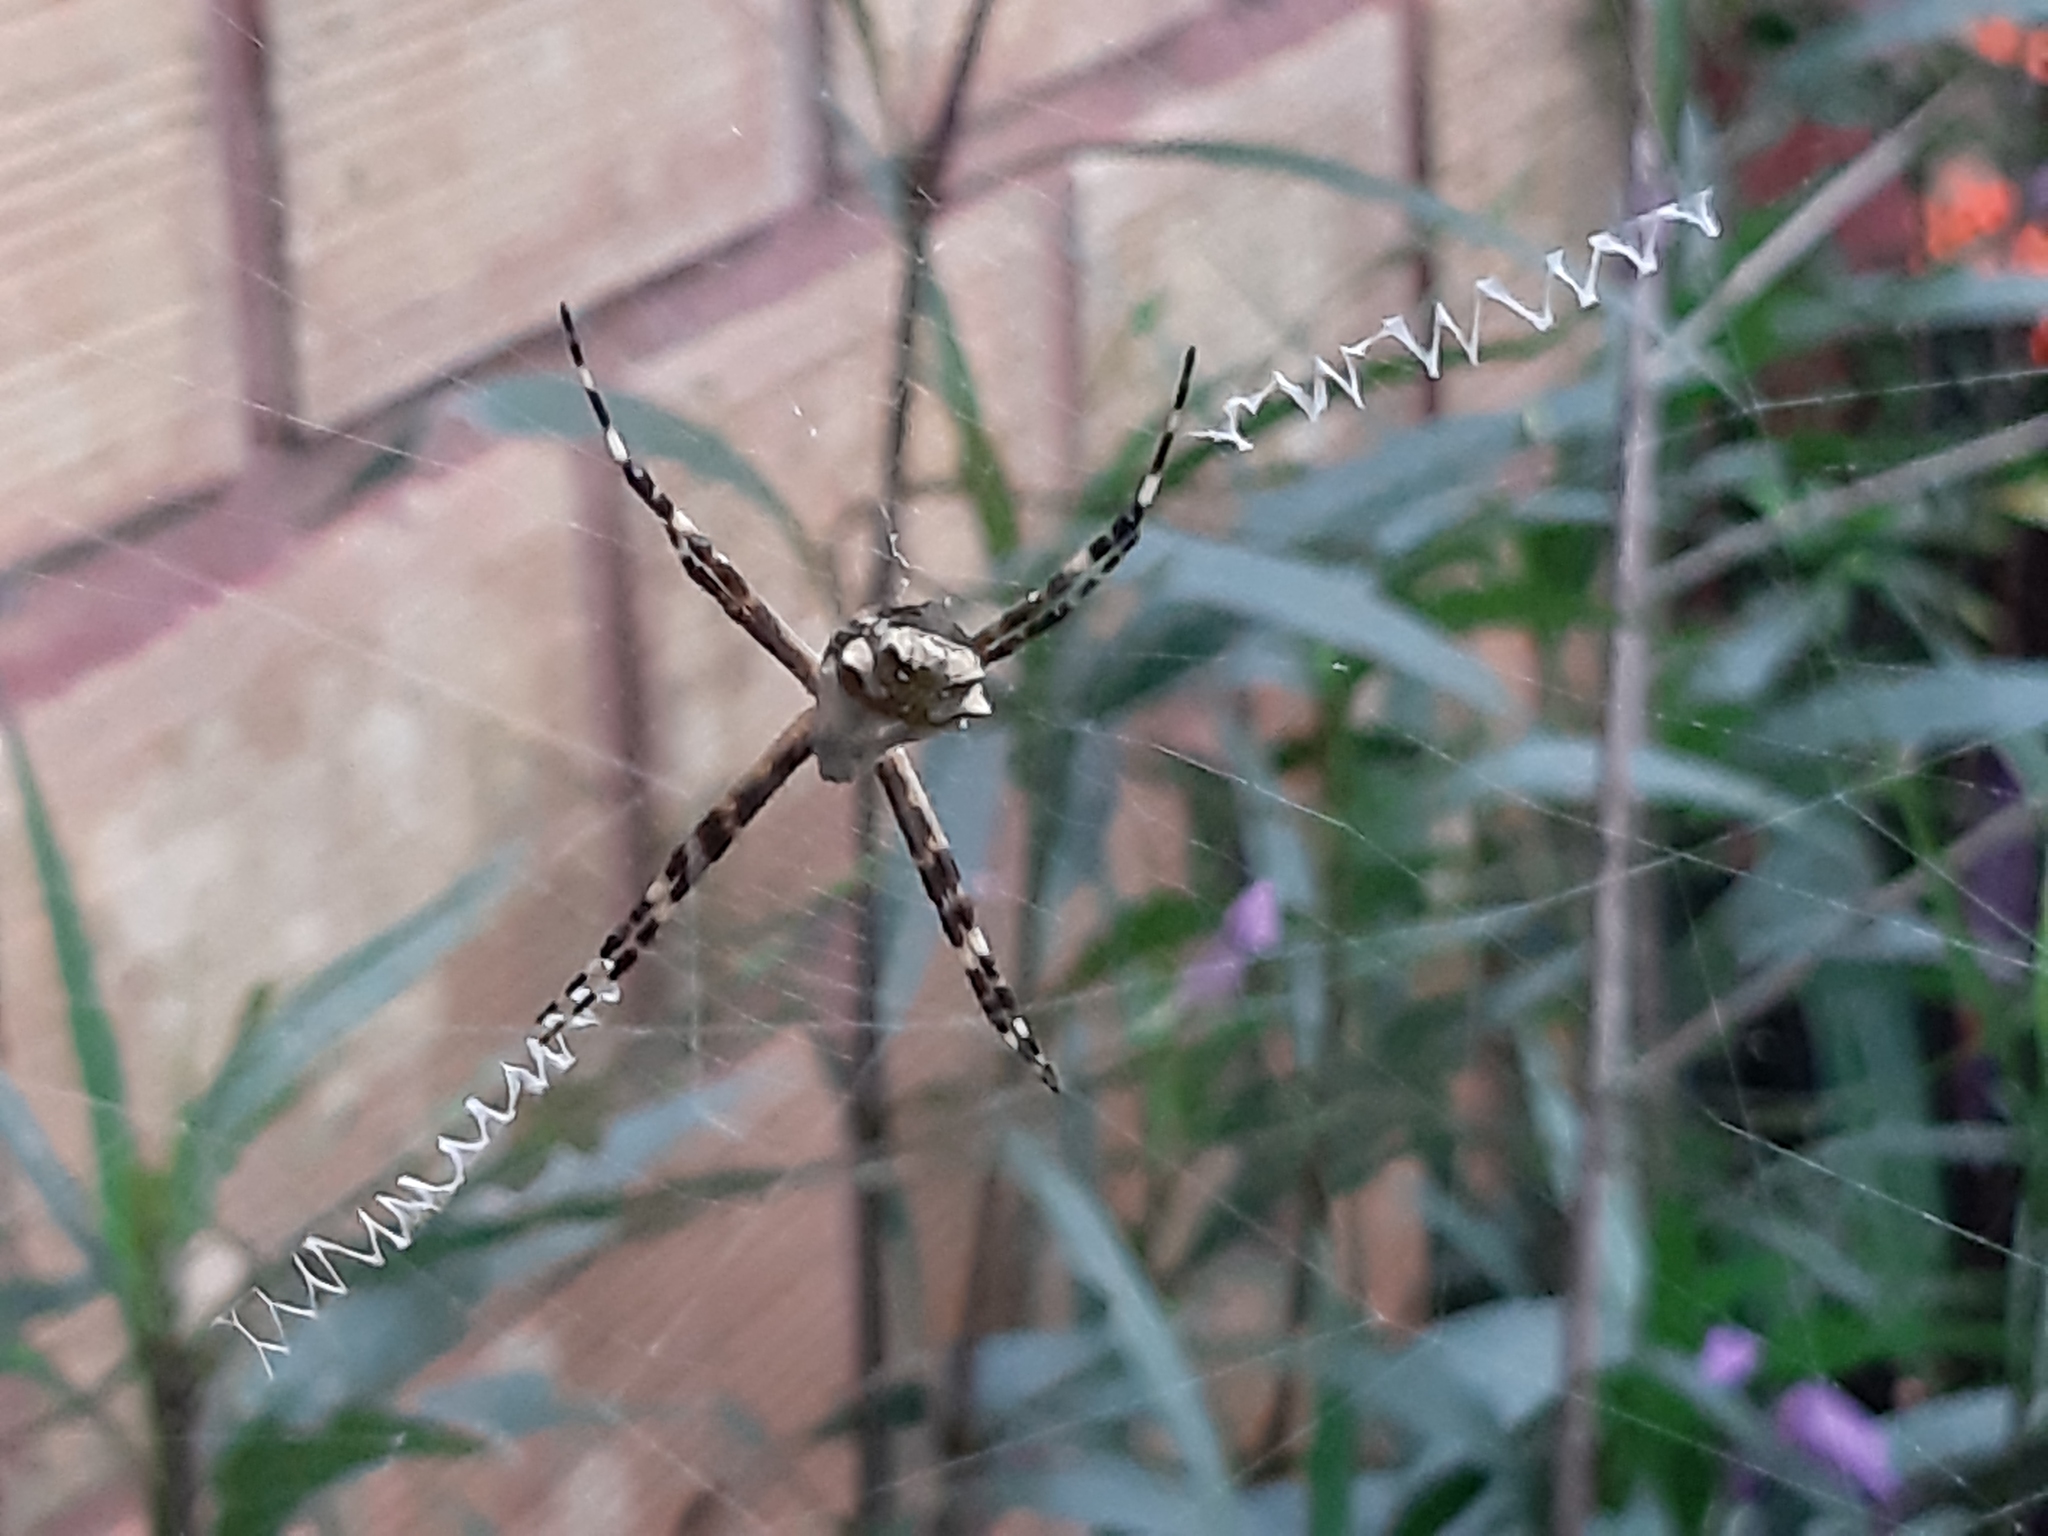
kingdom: Animalia
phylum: Arthropoda
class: Arachnida
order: Araneae
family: Araneidae
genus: Argiope
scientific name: Argiope argentata
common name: Orb weavers
